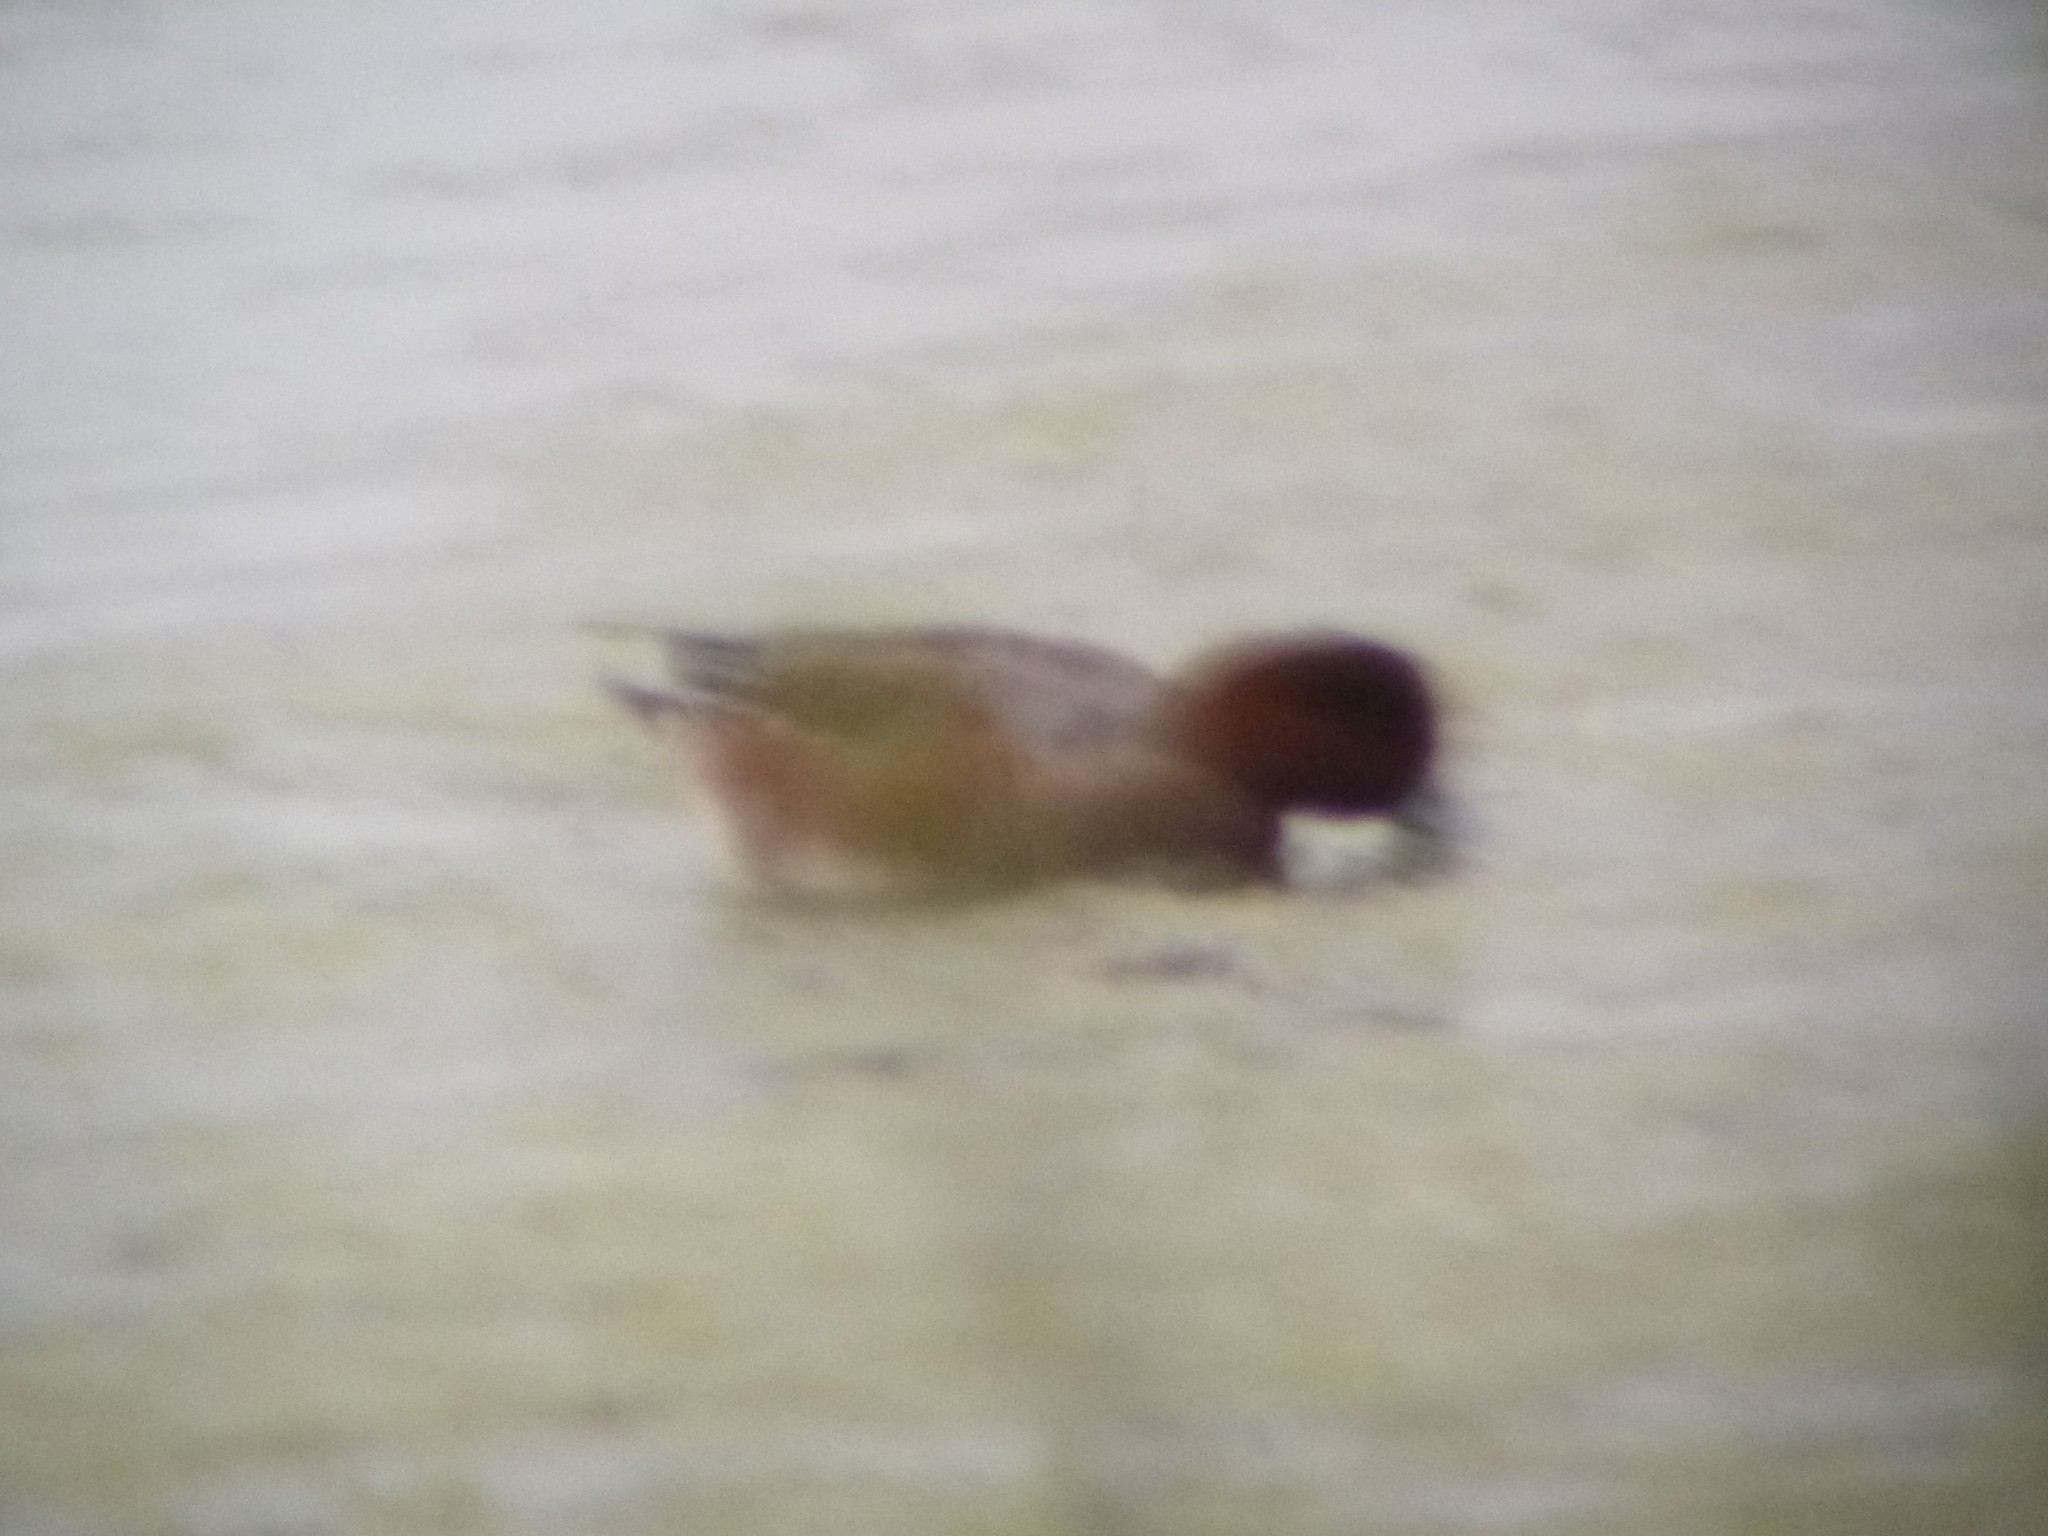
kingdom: Animalia
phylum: Chordata
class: Aves
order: Anseriformes
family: Anatidae
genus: Mareca
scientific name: Mareca penelope
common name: Eurasian wigeon
